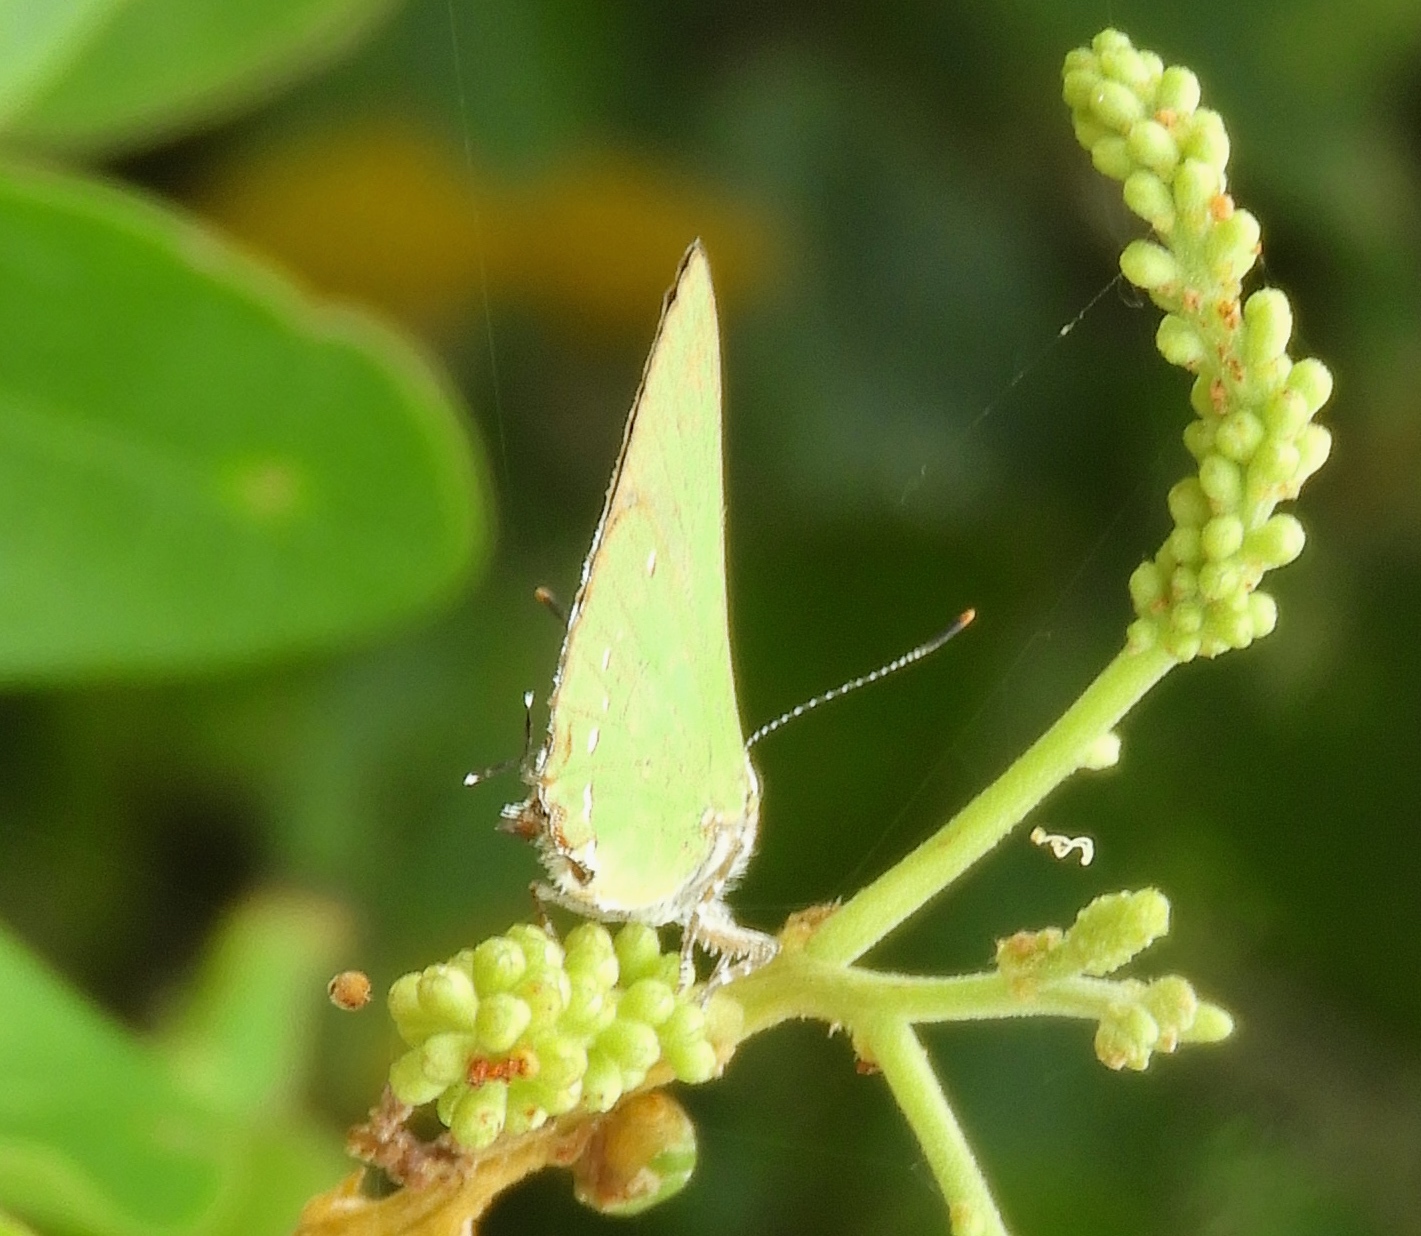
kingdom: Animalia
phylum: Arthropoda
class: Insecta
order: Lepidoptera
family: Lycaenidae
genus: Cyanophrys
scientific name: Cyanophrys
